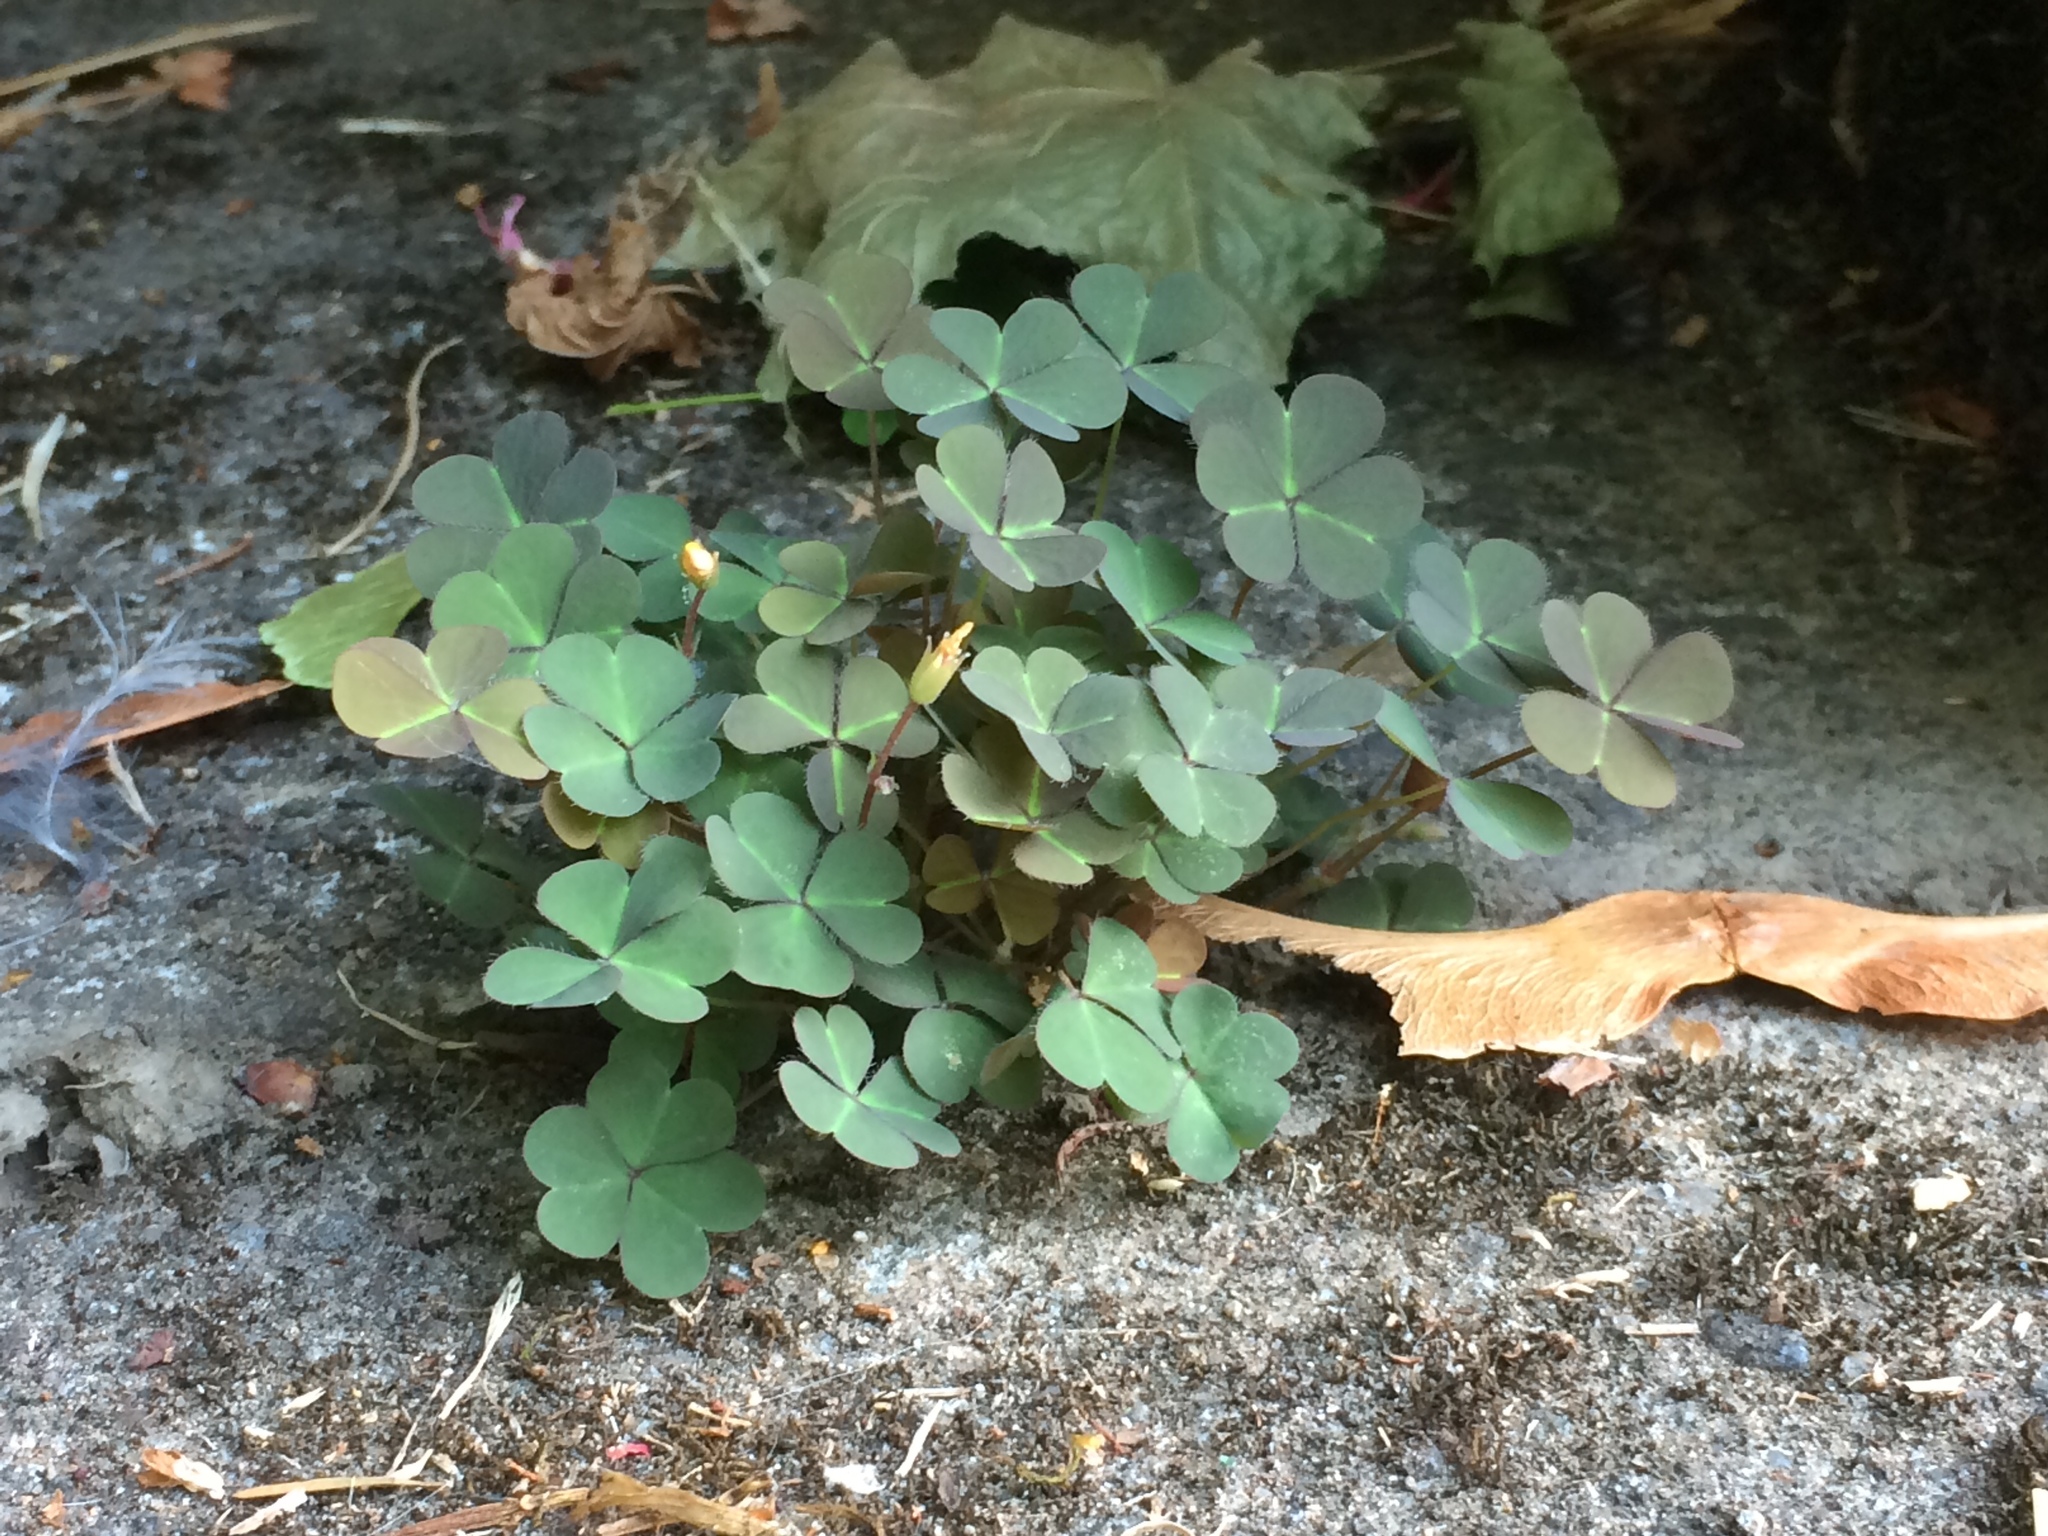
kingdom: Plantae
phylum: Tracheophyta
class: Magnoliopsida
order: Oxalidales
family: Oxalidaceae
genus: Oxalis
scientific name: Oxalis corniculata
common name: Procumbent yellow-sorrel
